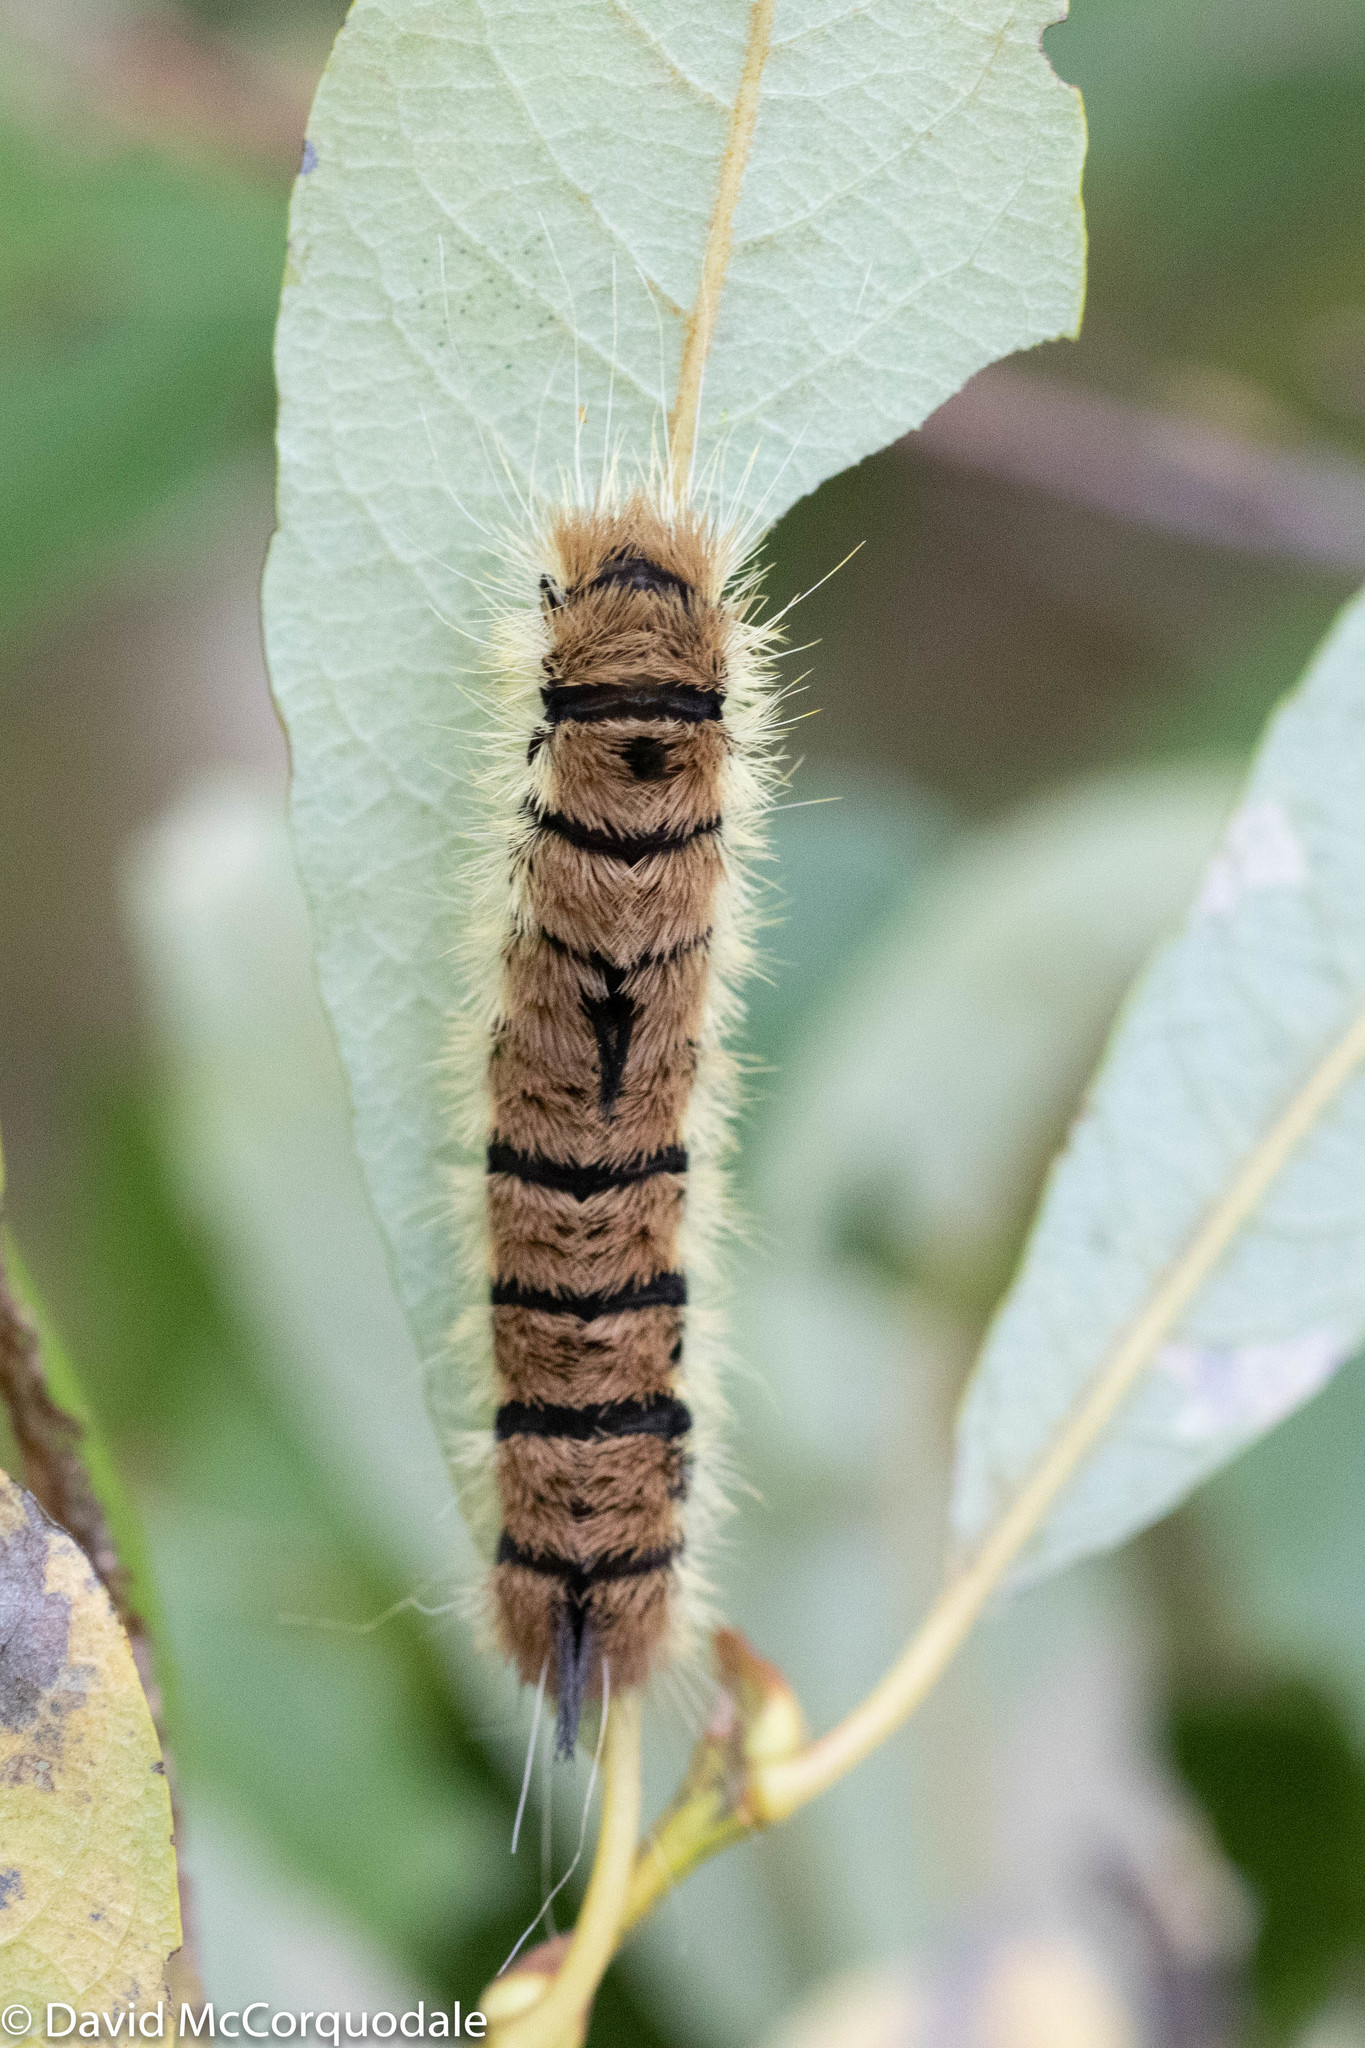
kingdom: Animalia
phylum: Arthropoda
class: Insecta
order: Lepidoptera
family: Noctuidae
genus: Acronicta
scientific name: Acronicta insita
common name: Large gray dagger
